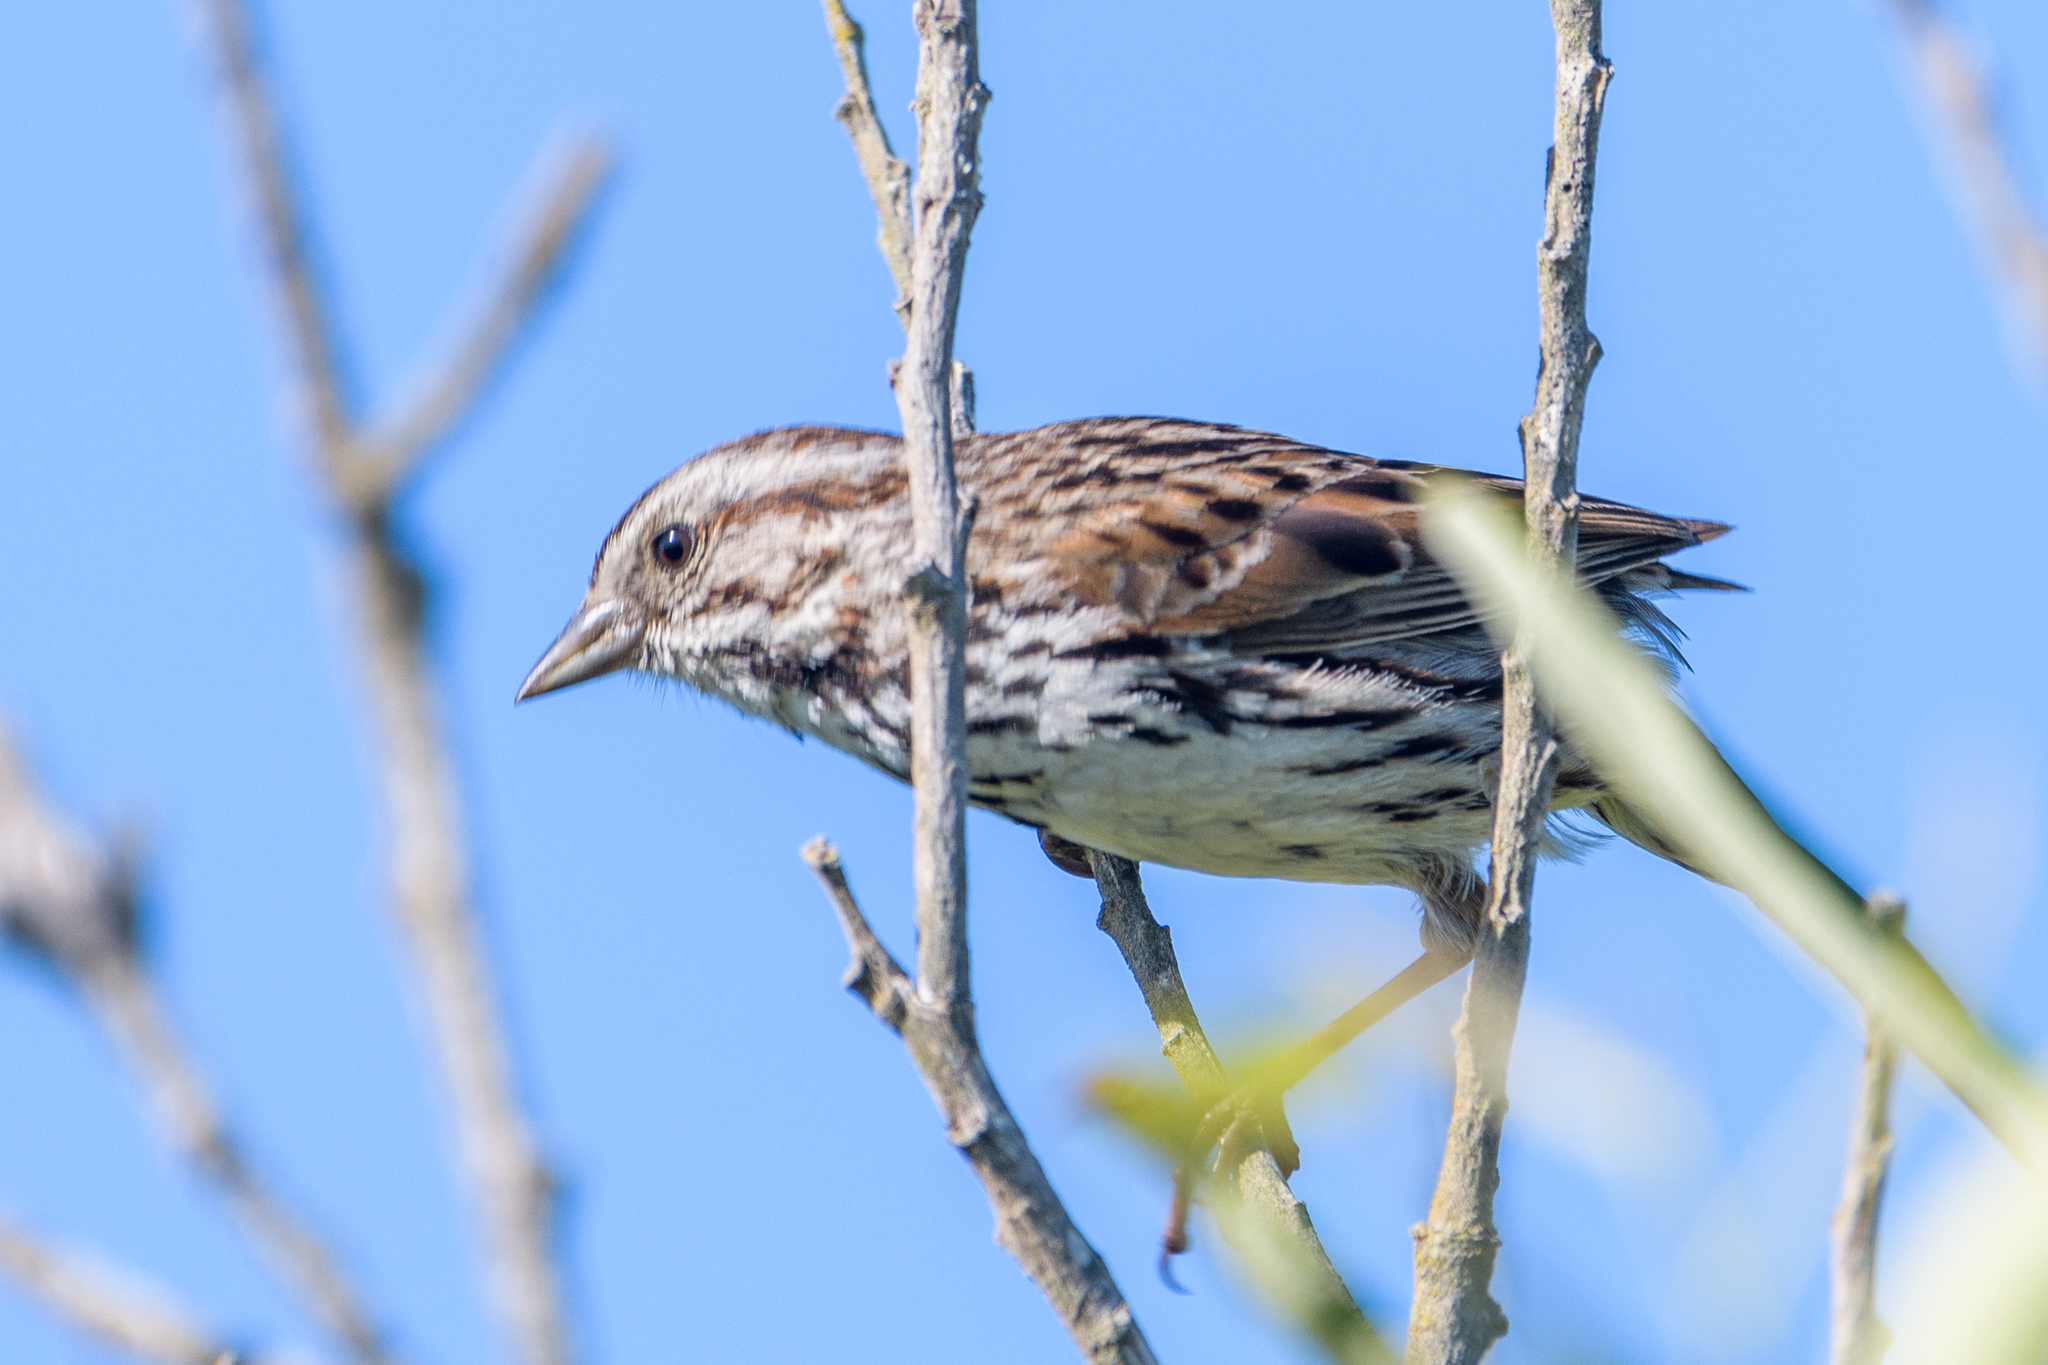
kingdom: Animalia
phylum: Chordata
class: Aves
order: Passeriformes
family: Passerellidae
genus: Melospiza
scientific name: Melospiza melodia
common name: Song sparrow
